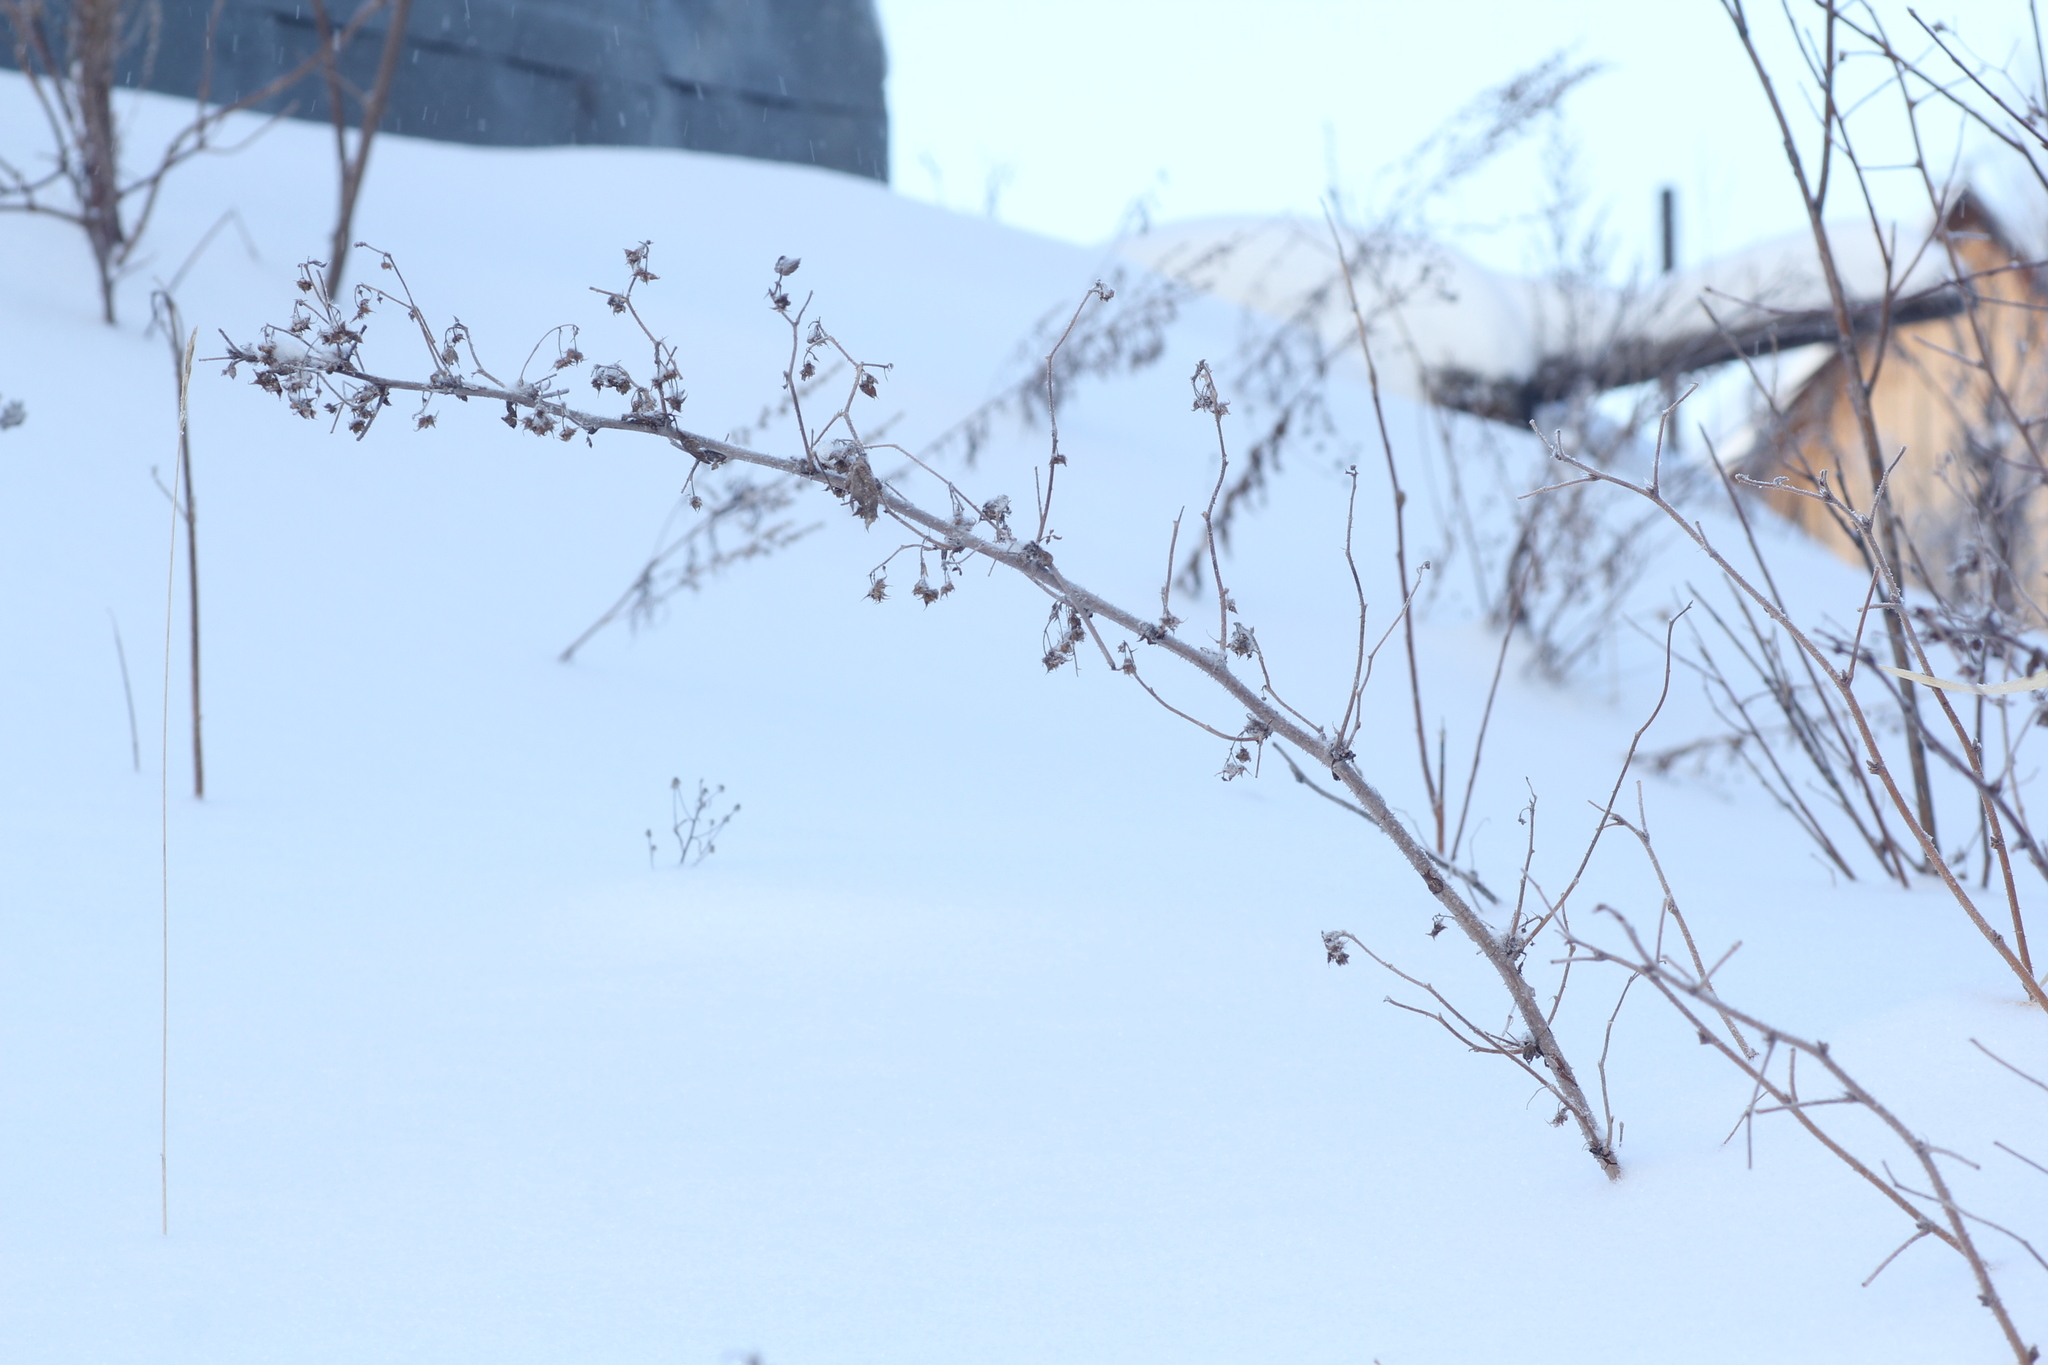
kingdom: Plantae
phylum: Tracheophyta
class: Magnoliopsida
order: Rosales
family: Rosaceae
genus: Rubus
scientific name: Rubus idaeus
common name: Raspberry
